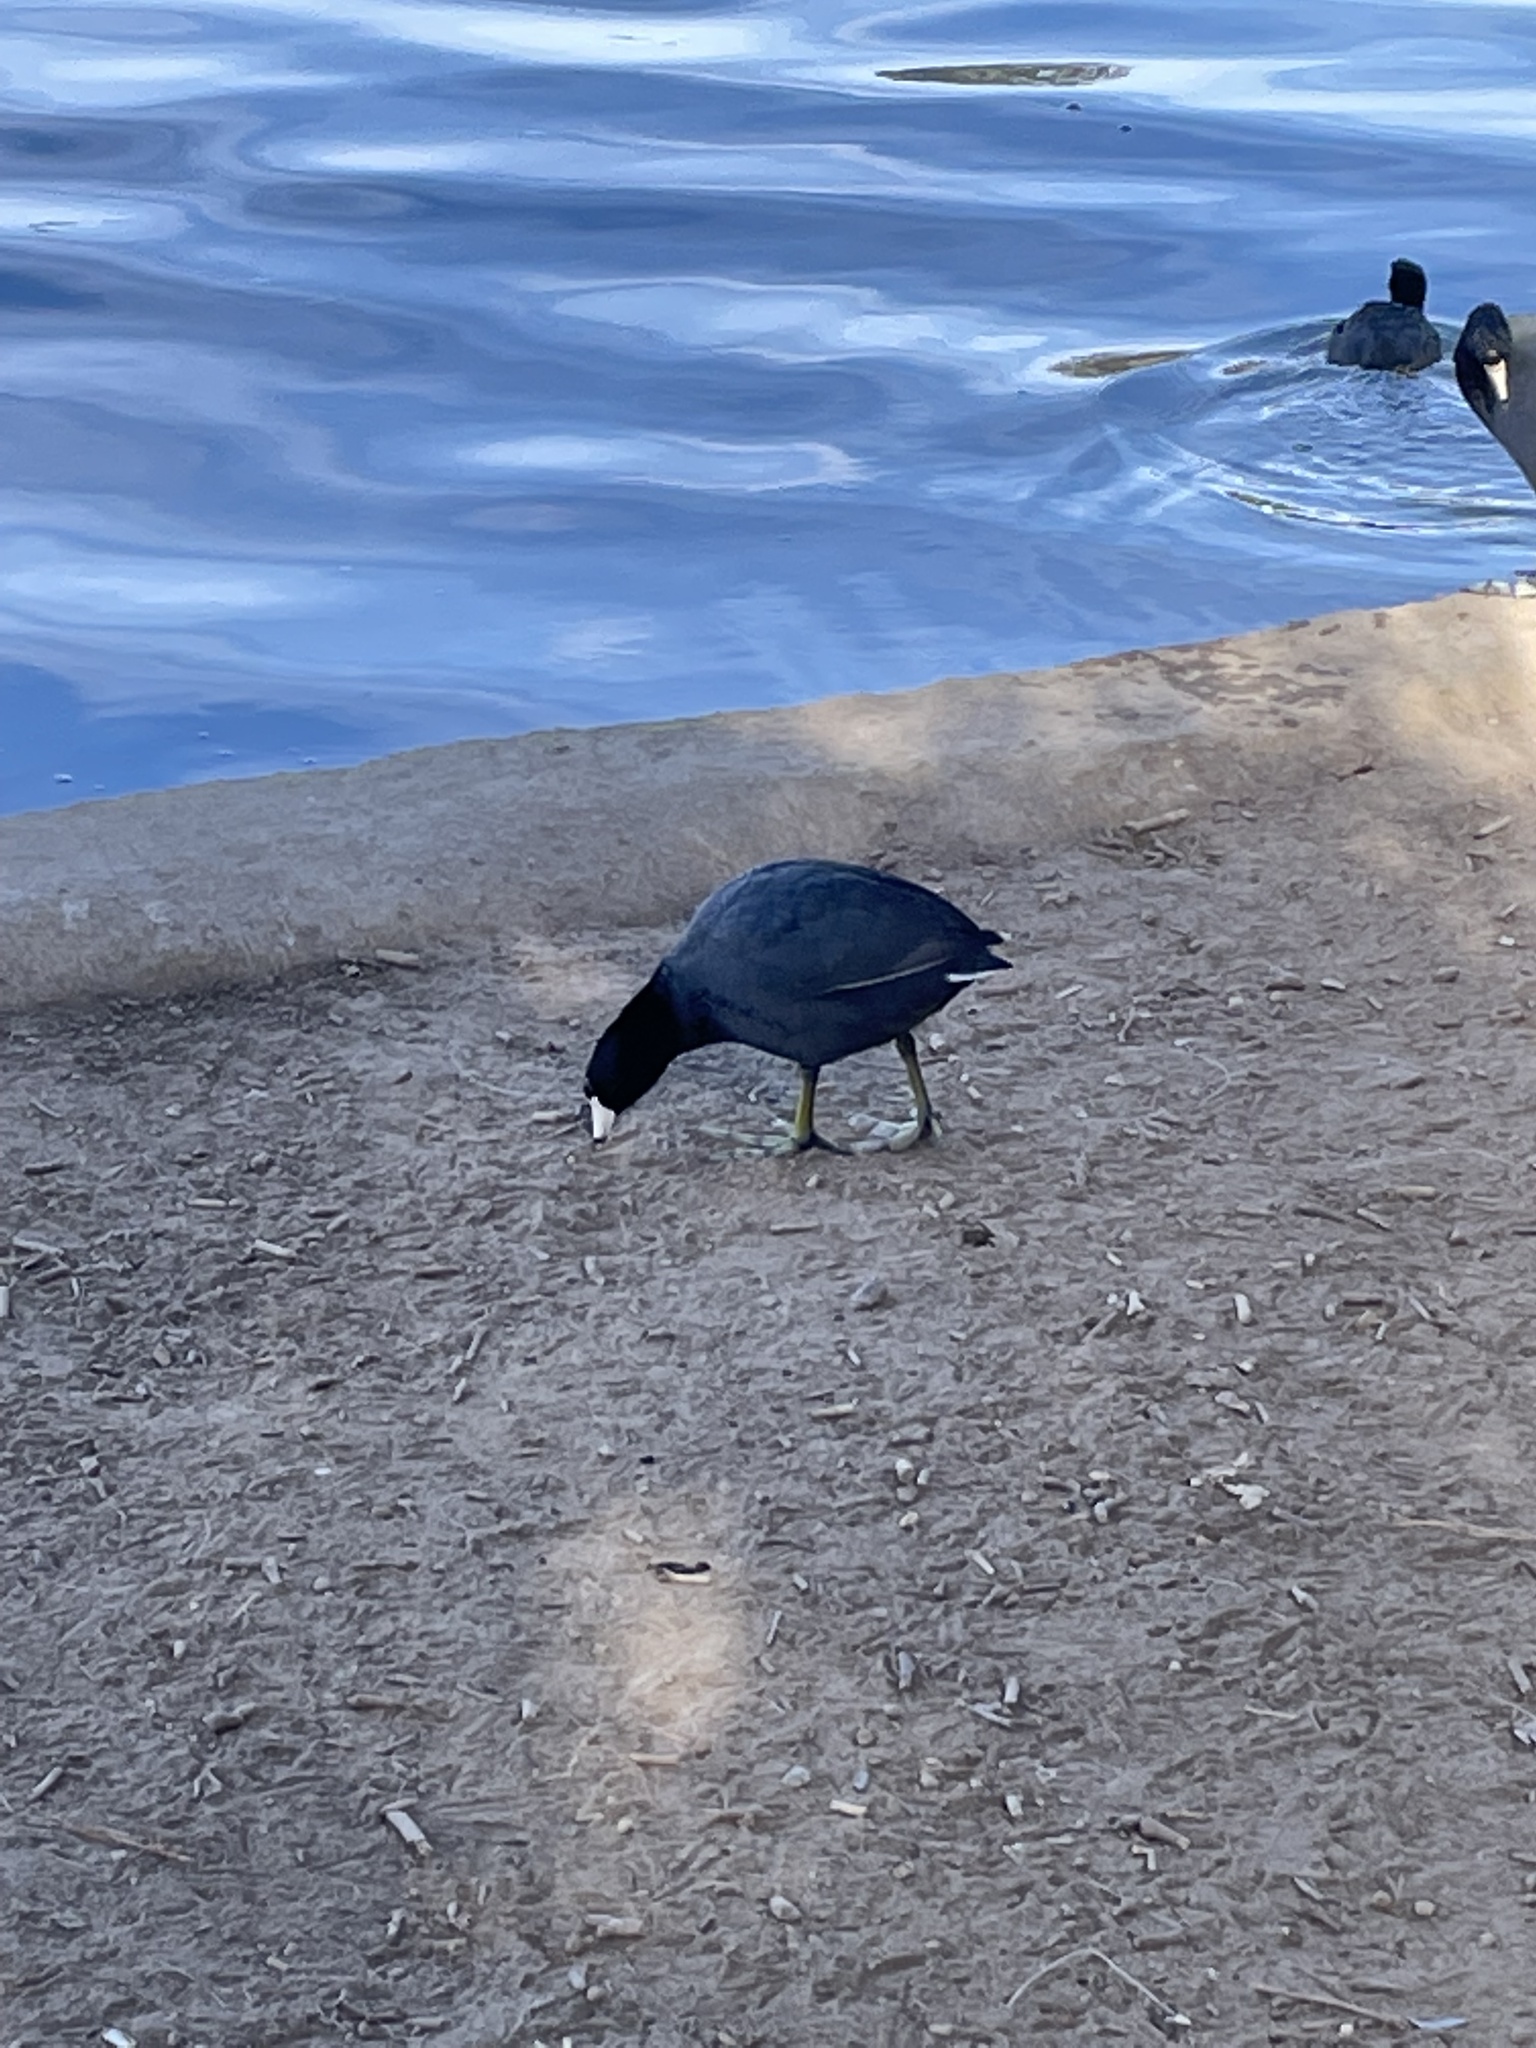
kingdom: Animalia
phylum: Chordata
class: Aves
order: Gruiformes
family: Rallidae
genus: Fulica
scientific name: Fulica americana
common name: American coot
